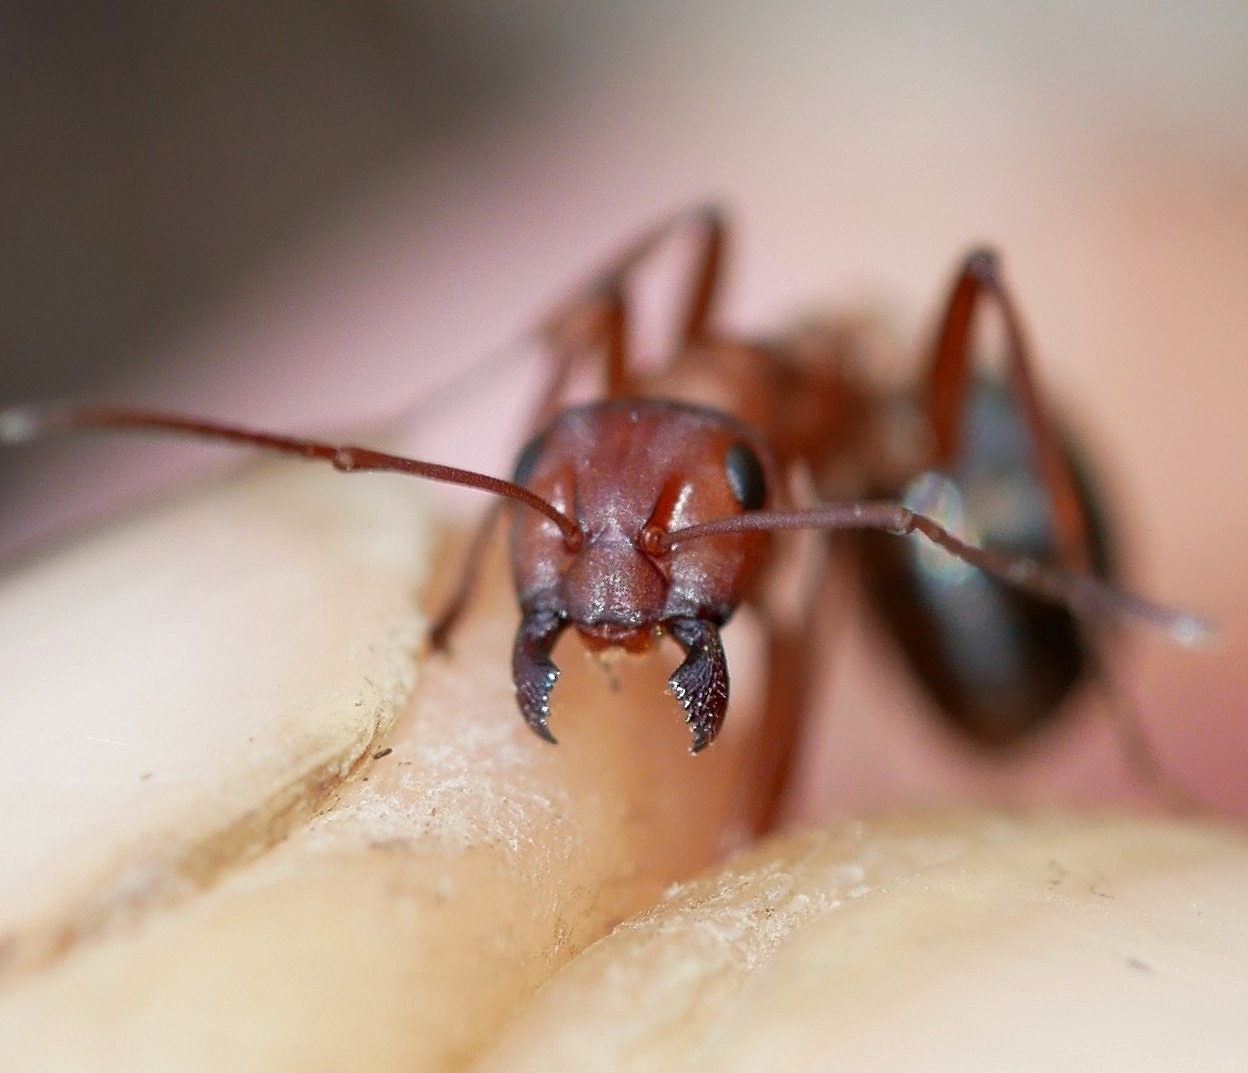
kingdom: Animalia
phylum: Arthropoda
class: Insecta
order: Hymenoptera
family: Formicidae
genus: Formica
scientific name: Formica aserva
